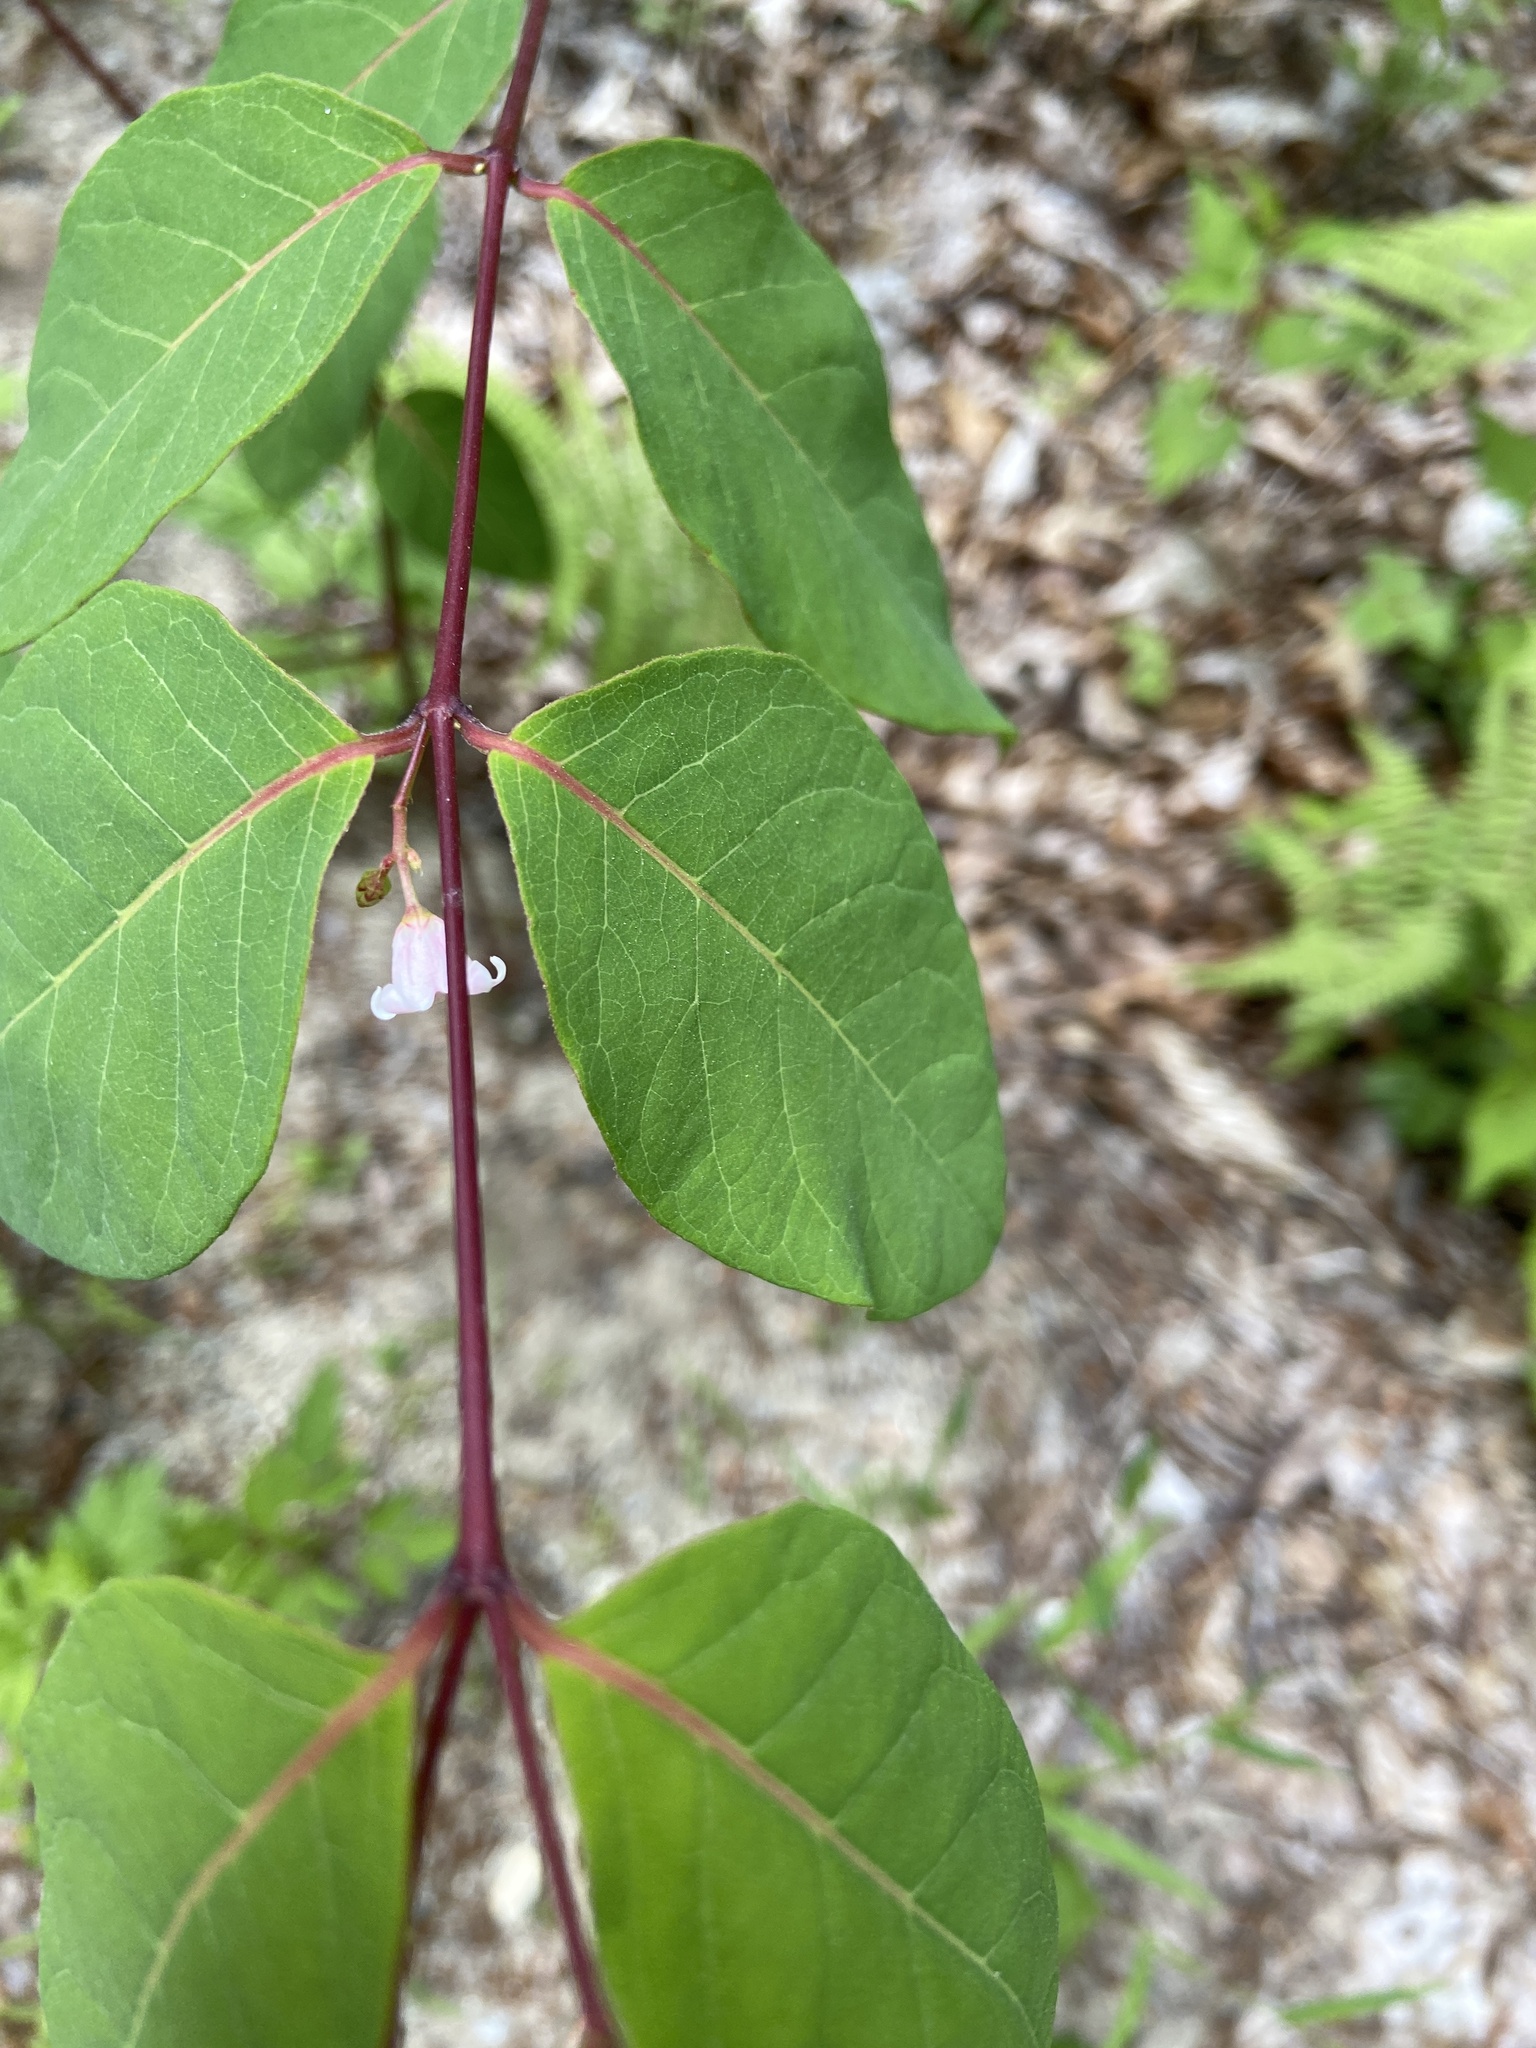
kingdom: Plantae
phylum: Tracheophyta
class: Magnoliopsida
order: Gentianales
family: Apocynaceae
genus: Apocynum
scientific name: Apocynum androsaemifolium
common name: Spreading dogbane
